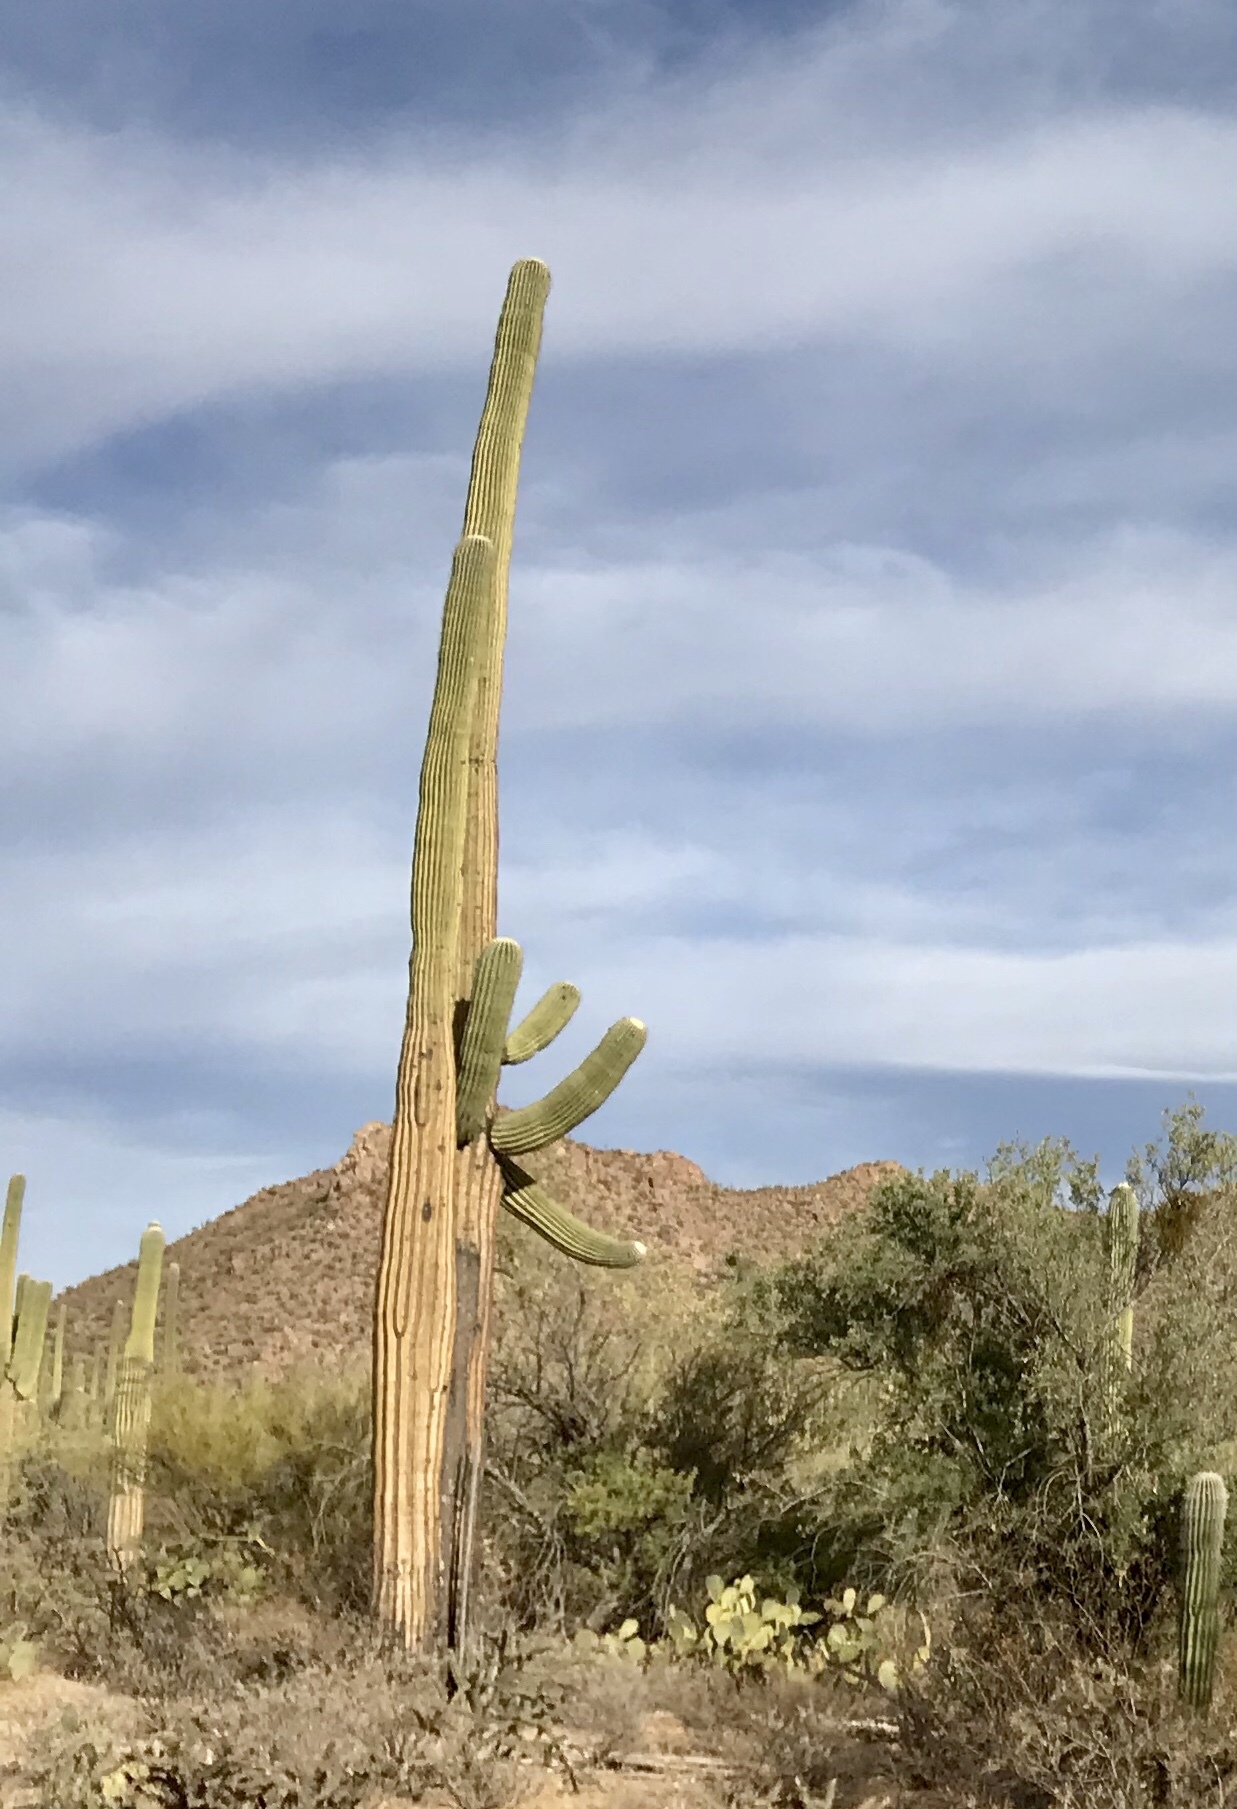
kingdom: Plantae
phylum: Tracheophyta
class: Magnoliopsida
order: Caryophyllales
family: Cactaceae
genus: Carnegiea
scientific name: Carnegiea gigantea
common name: Saguaro
